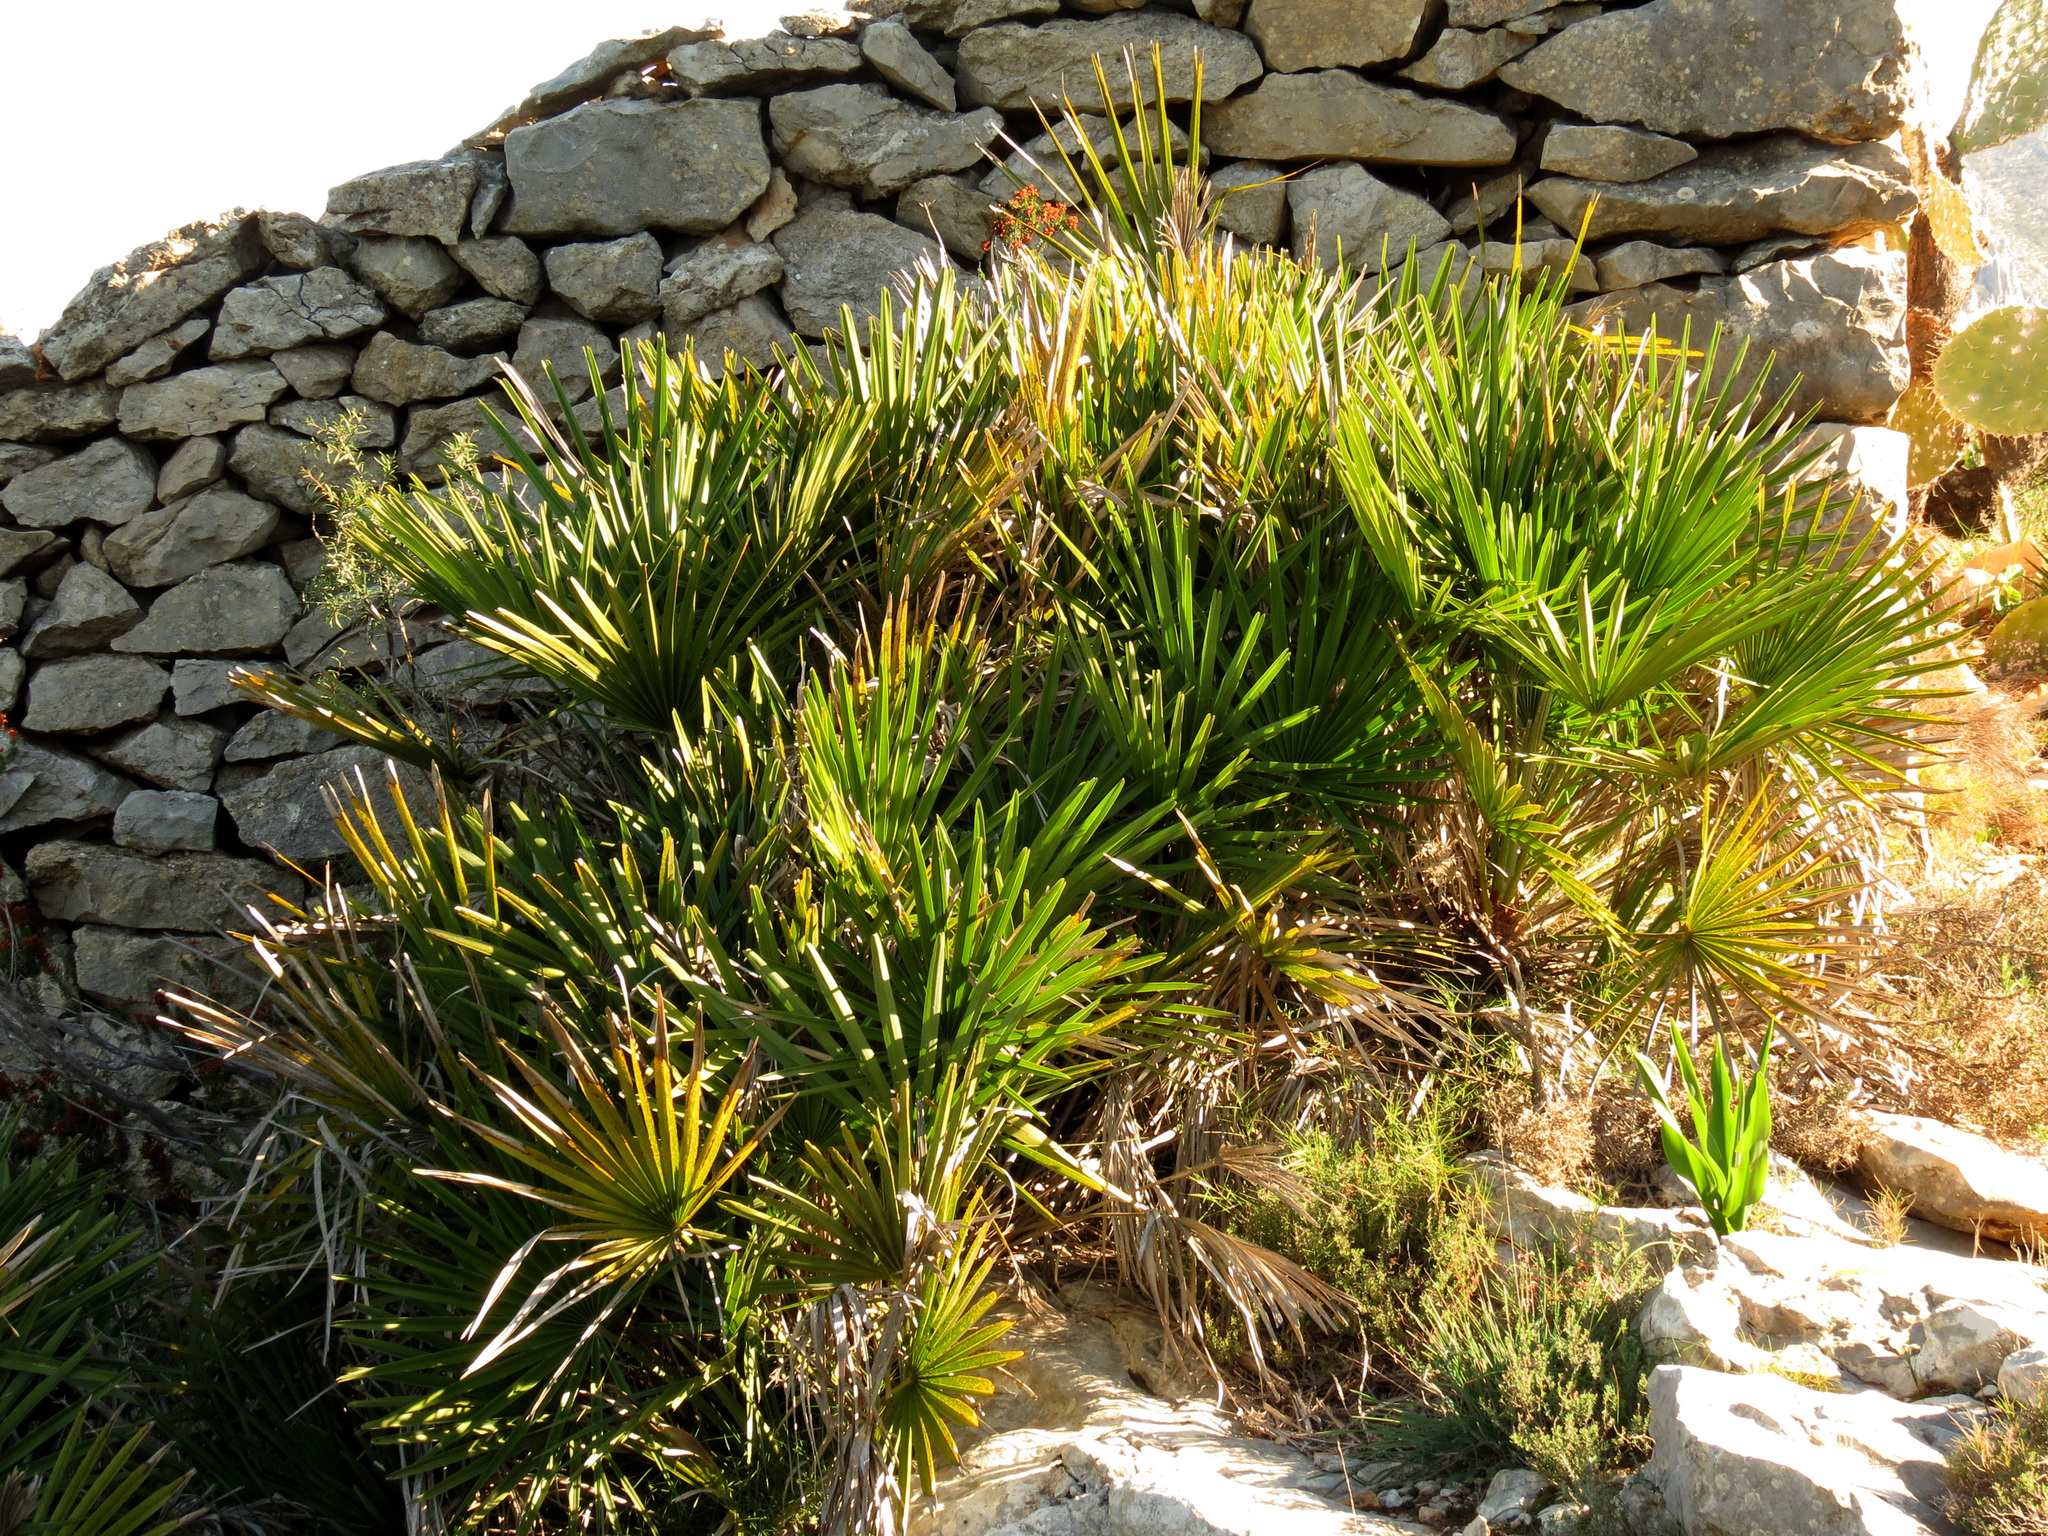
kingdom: Plantae
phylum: Tracheophyta
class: Liliopsida
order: Arecales
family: Arecaceae
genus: Chamaerops
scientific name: Chamaerops humilis
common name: Dwarf fan palm
